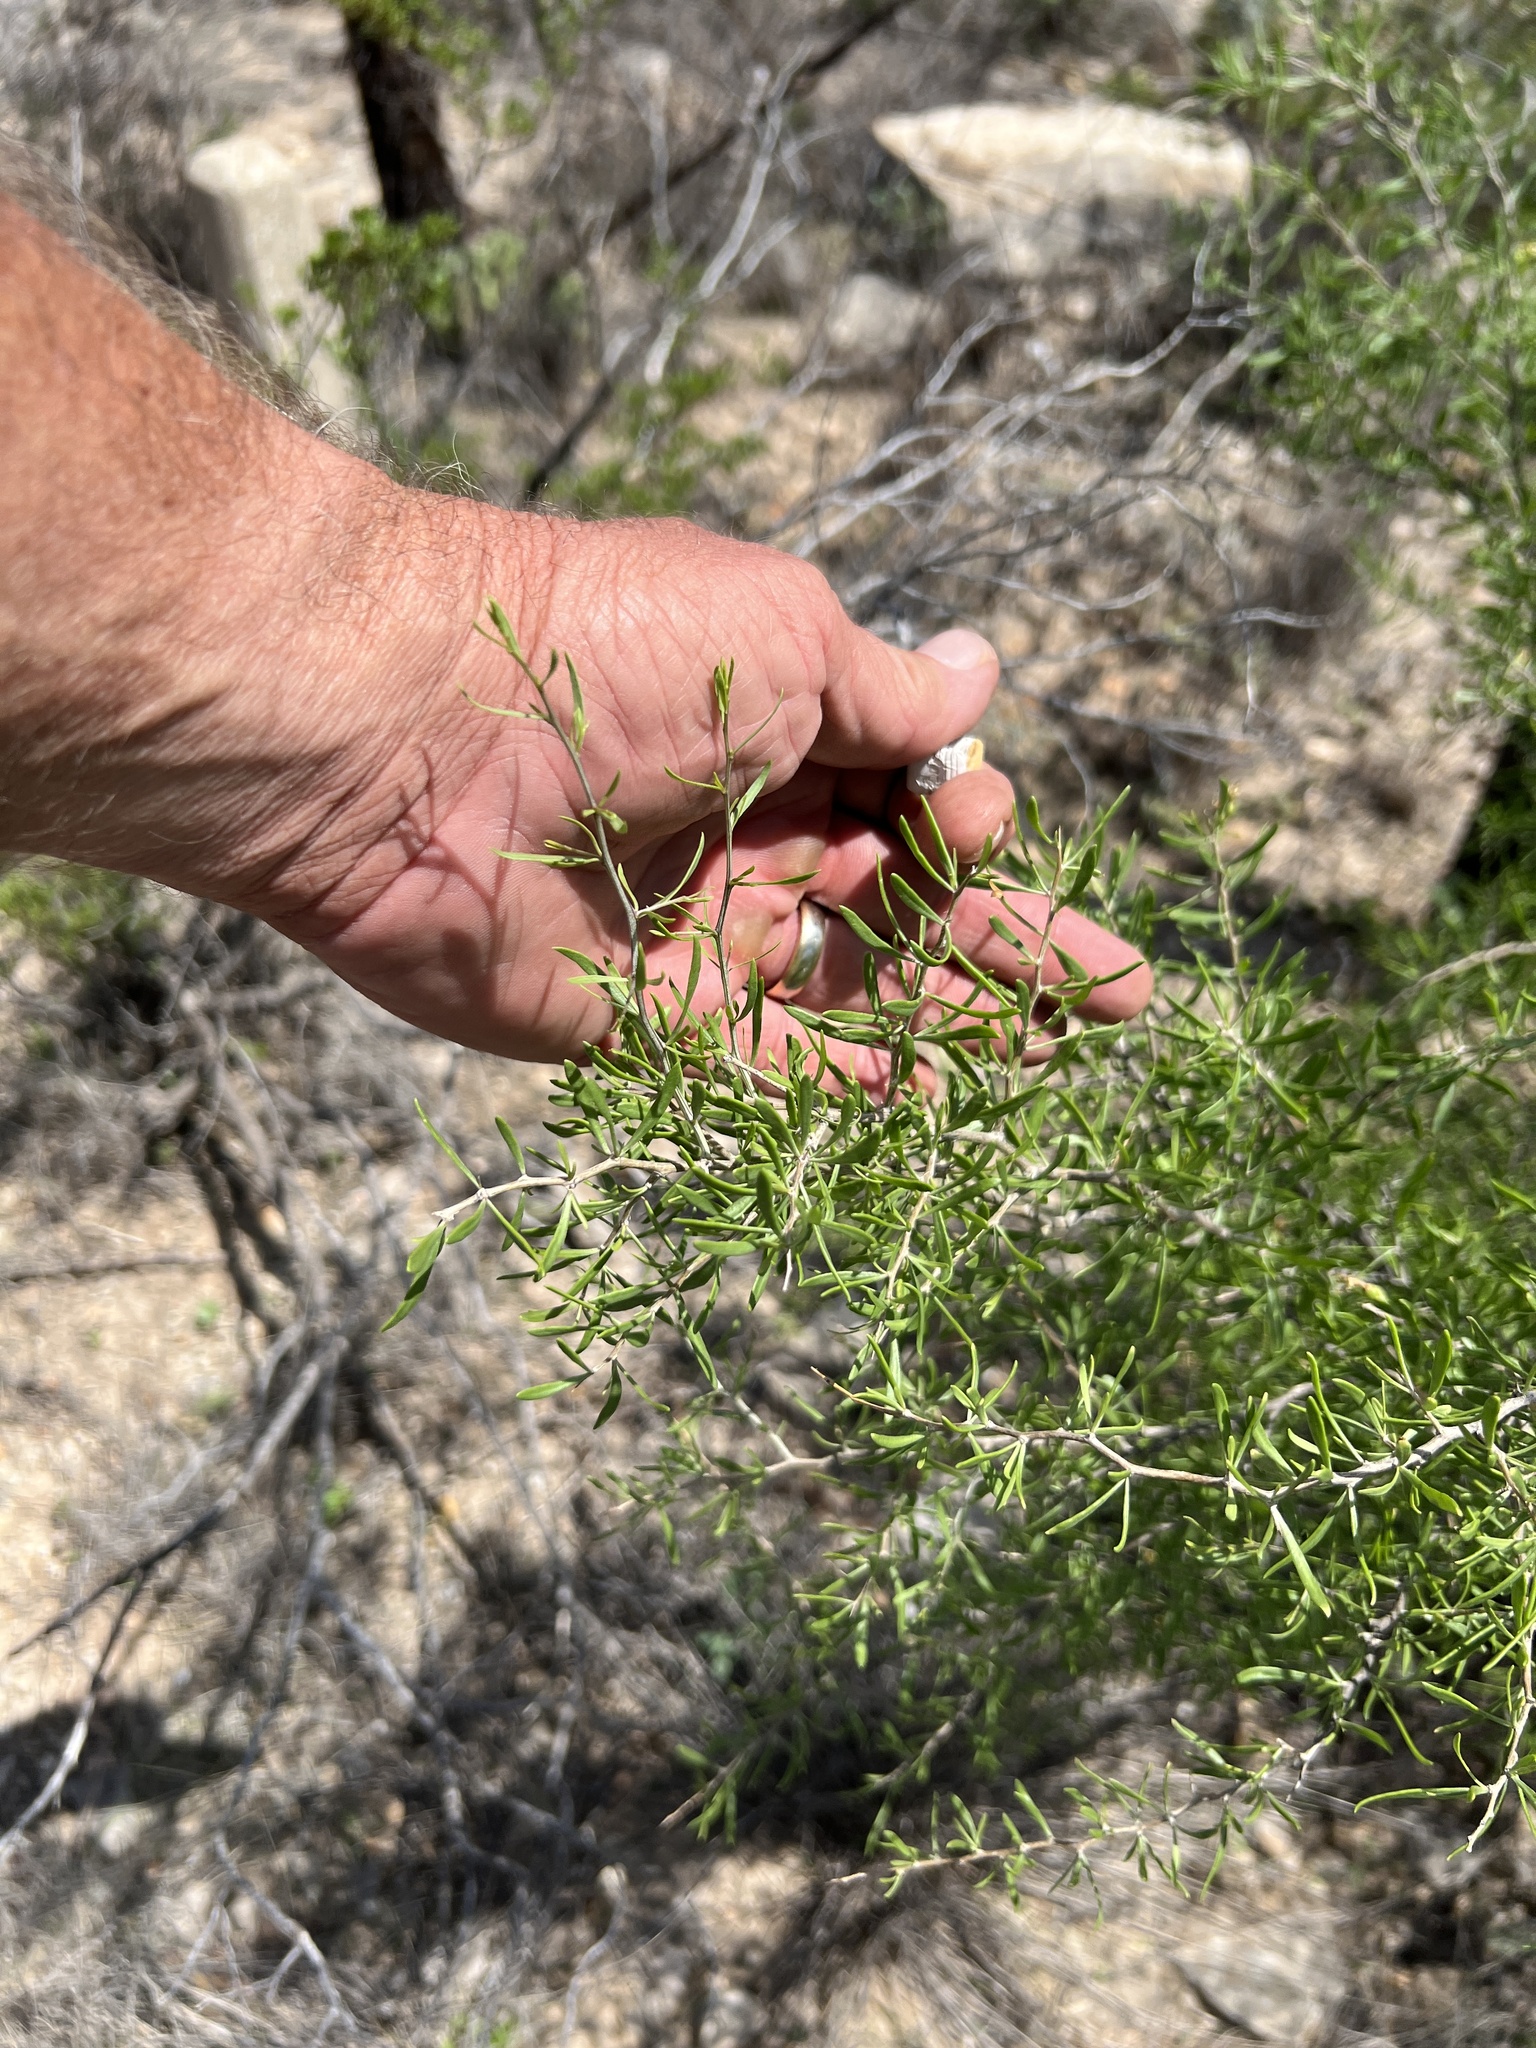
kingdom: Plantae
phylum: Tracheophyta
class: Magnoliopsida
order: Solanales
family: Solanaceae
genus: Lycium
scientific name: Lycium berlandieri
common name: Berlandier wolfberry
